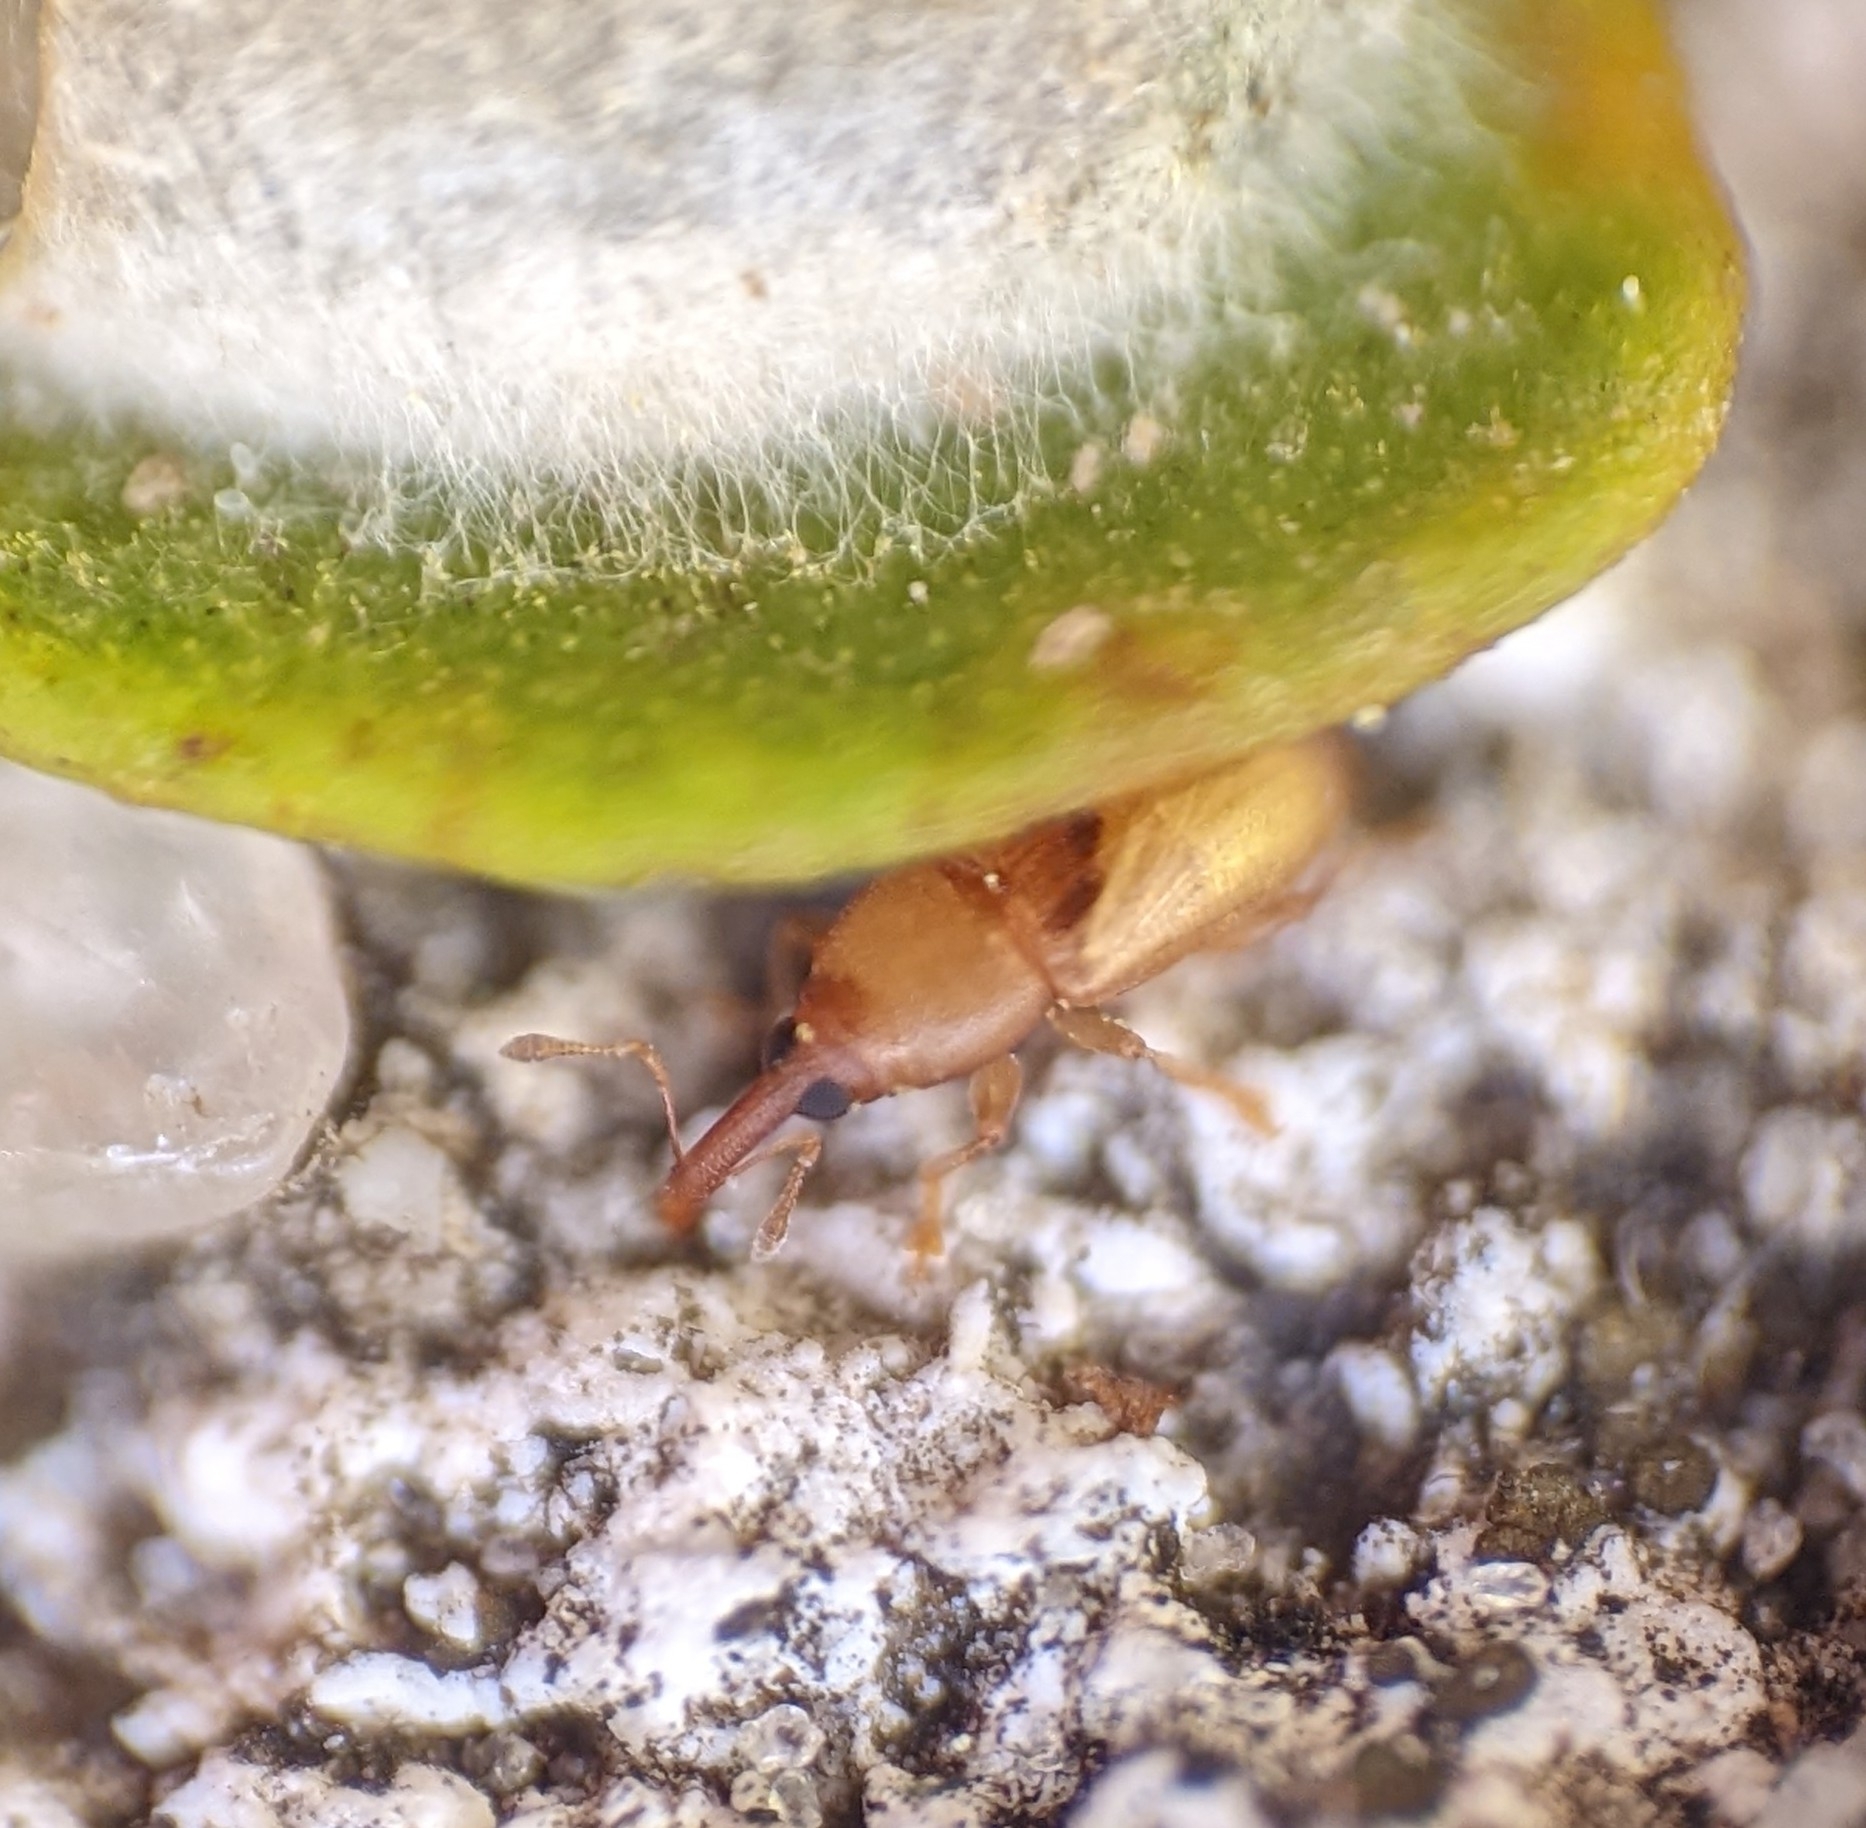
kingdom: Animalia
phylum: Arthropoda
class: Insecta
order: Coleoptera
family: Curculionidae
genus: Notolomus
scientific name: Notolomus basalis
